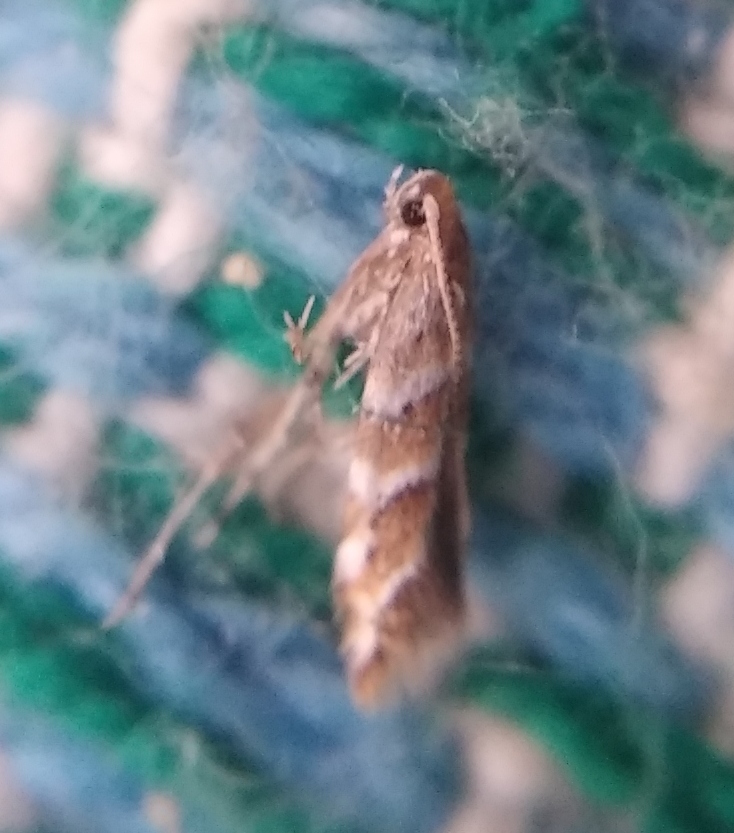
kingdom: Animalia
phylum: Arthropoda
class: Insecta
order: Lepidoptera
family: Gracillariidae
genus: Cameraria
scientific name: Cameraria ohridella
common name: Horse-chestnut leaf-miner
